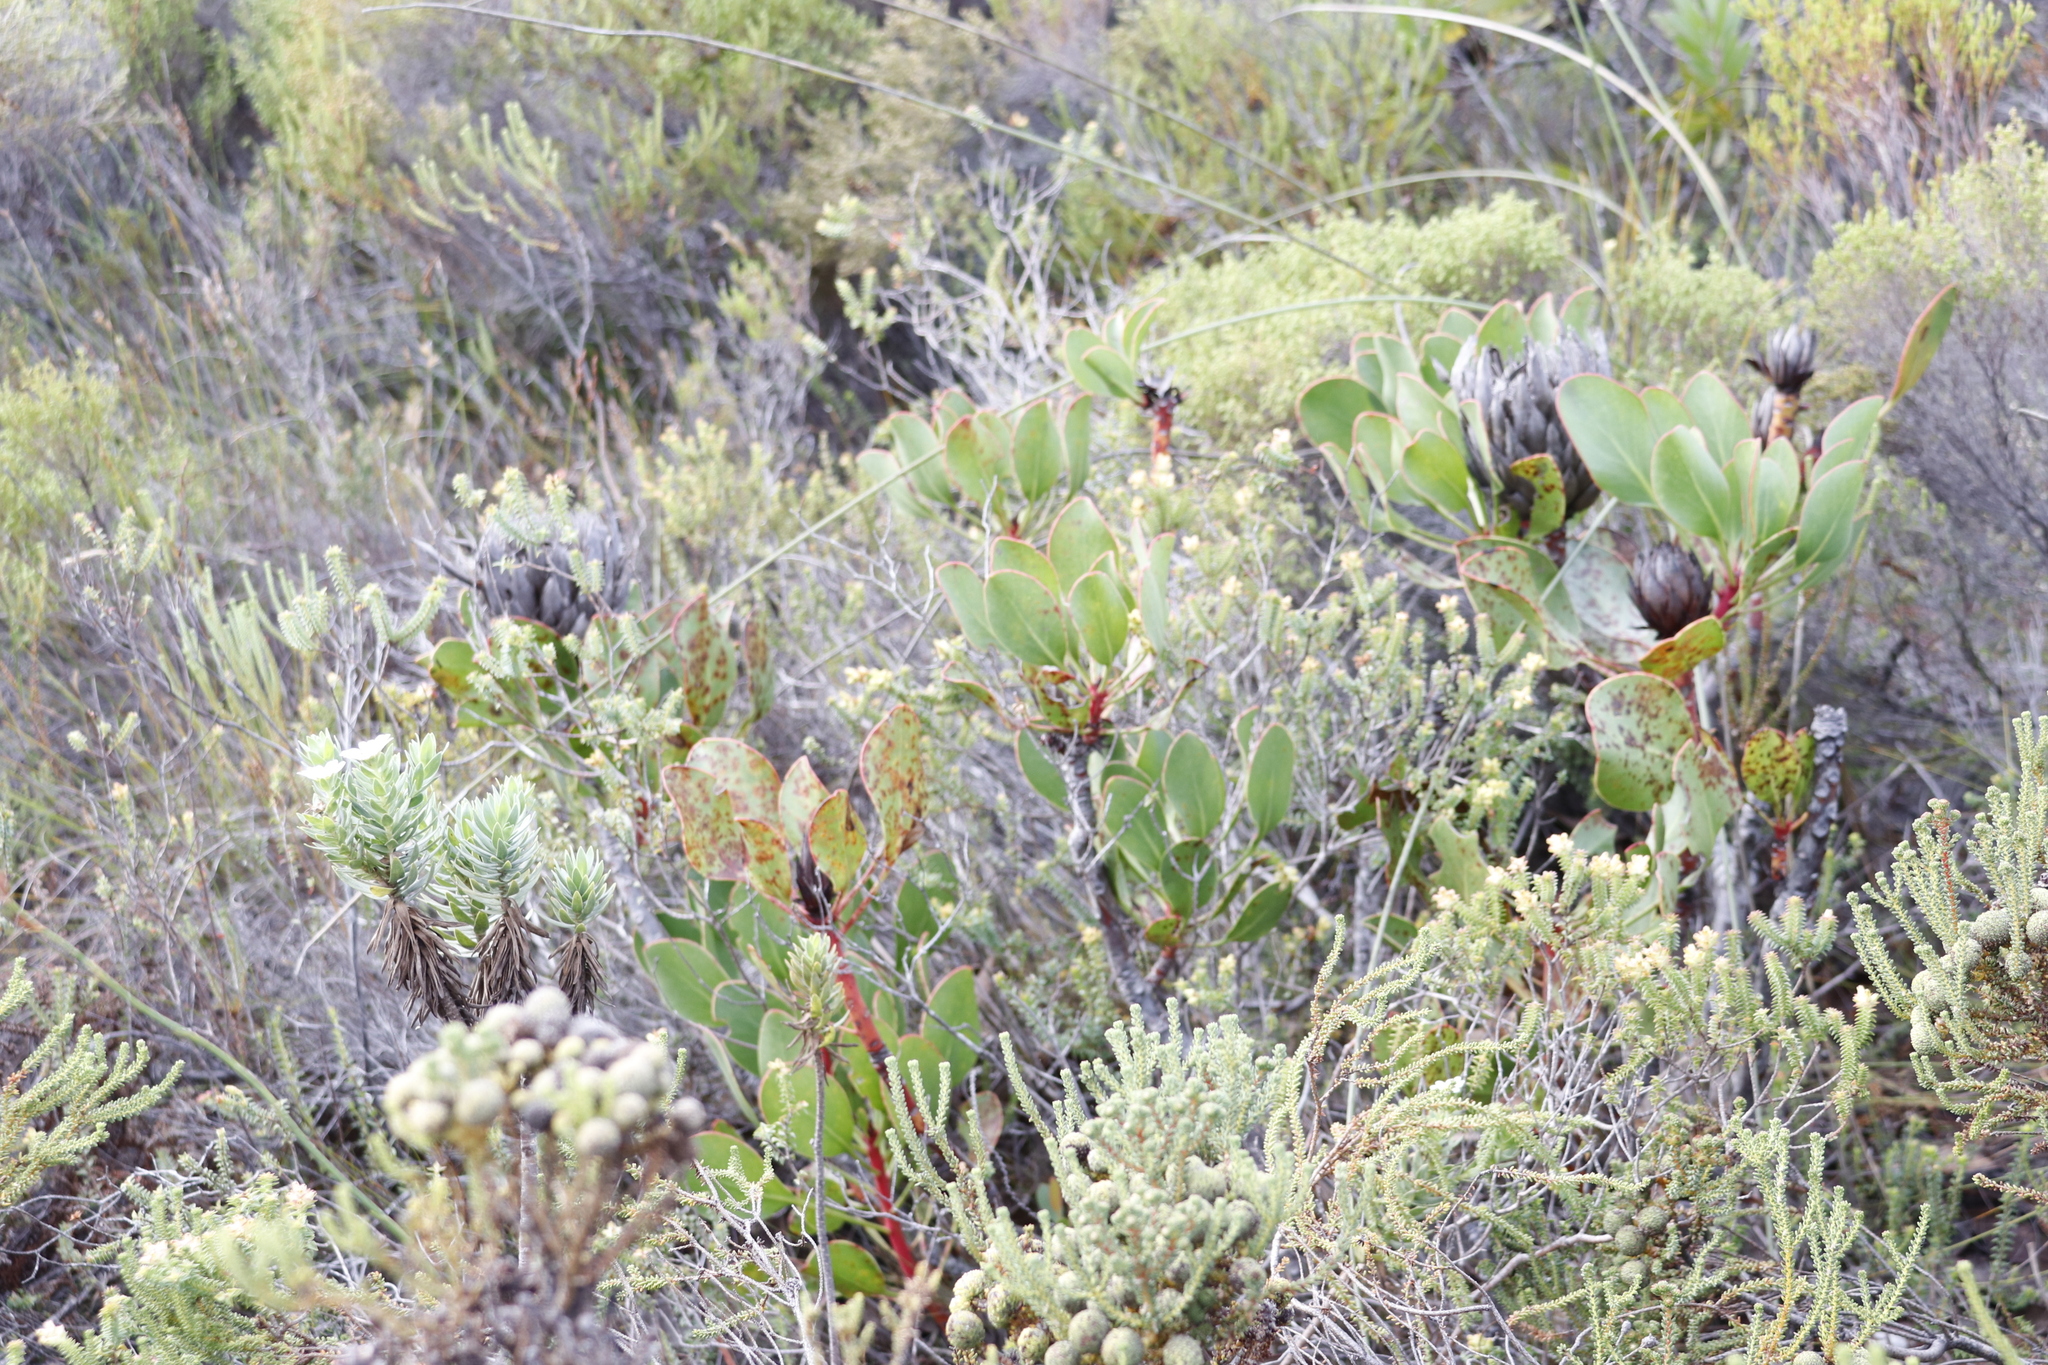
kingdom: Plantae
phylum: Tracheophyta
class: Magnoliopsida
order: Proteales
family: Proteaceae
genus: Protea
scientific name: Protea cynaroides
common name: King protea
